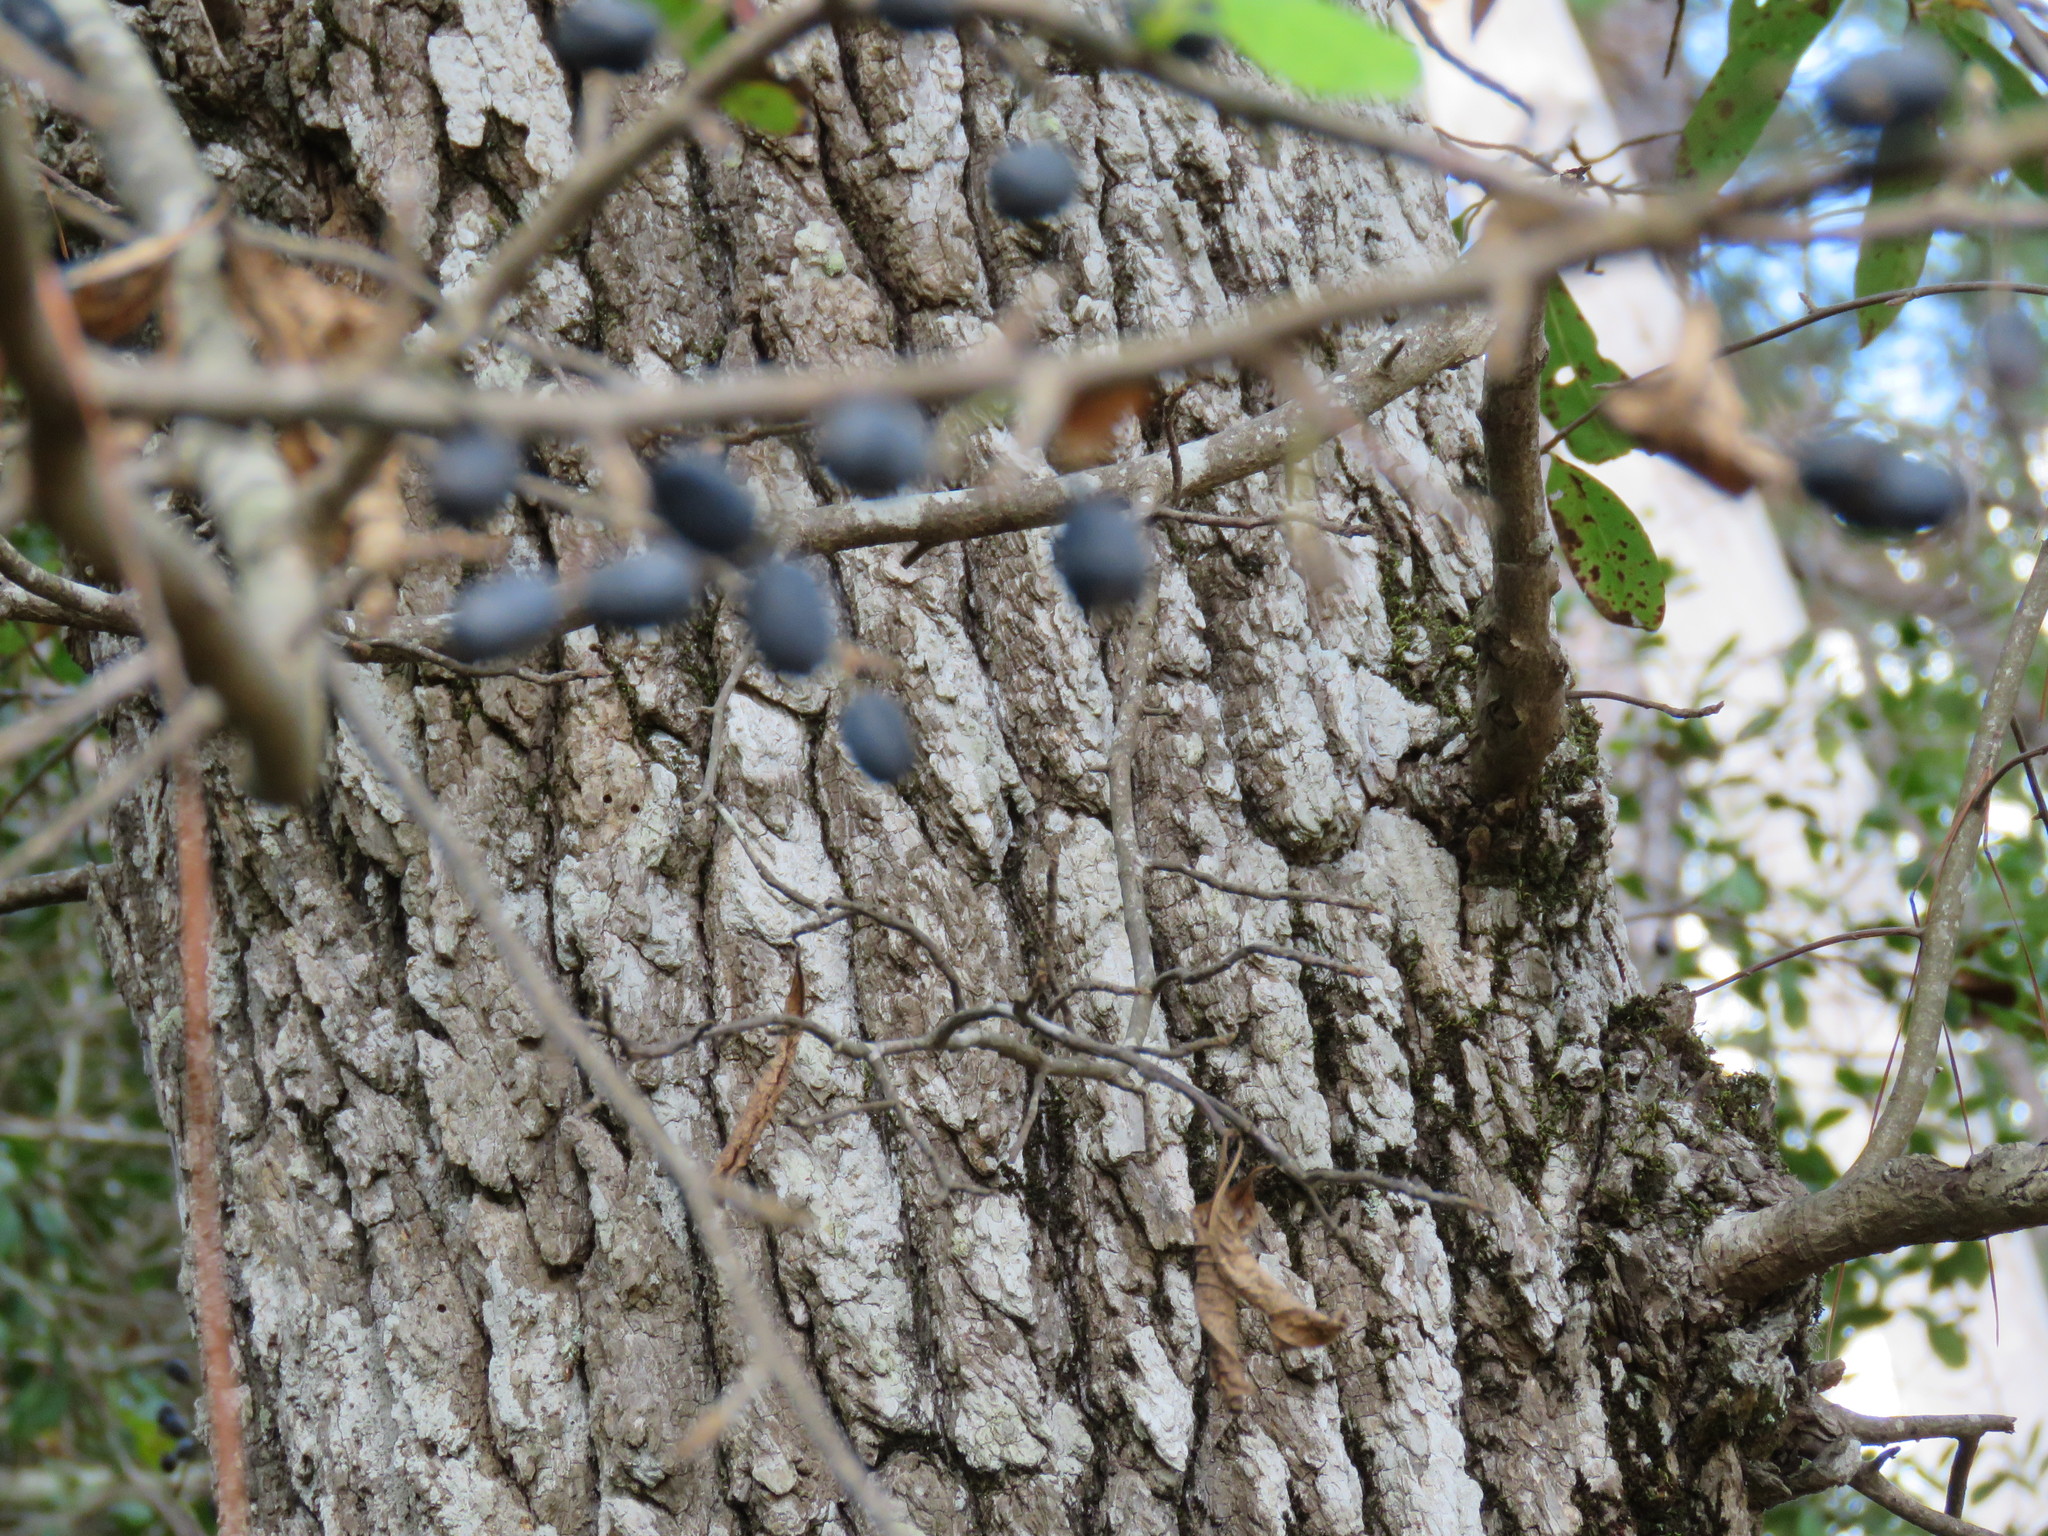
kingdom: Plantae
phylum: Tracheophyta
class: Magnoliopsida
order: Cornales
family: Nyssaceae
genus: Nyssa
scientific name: Nyssa sylvatica
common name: Black tupelo
